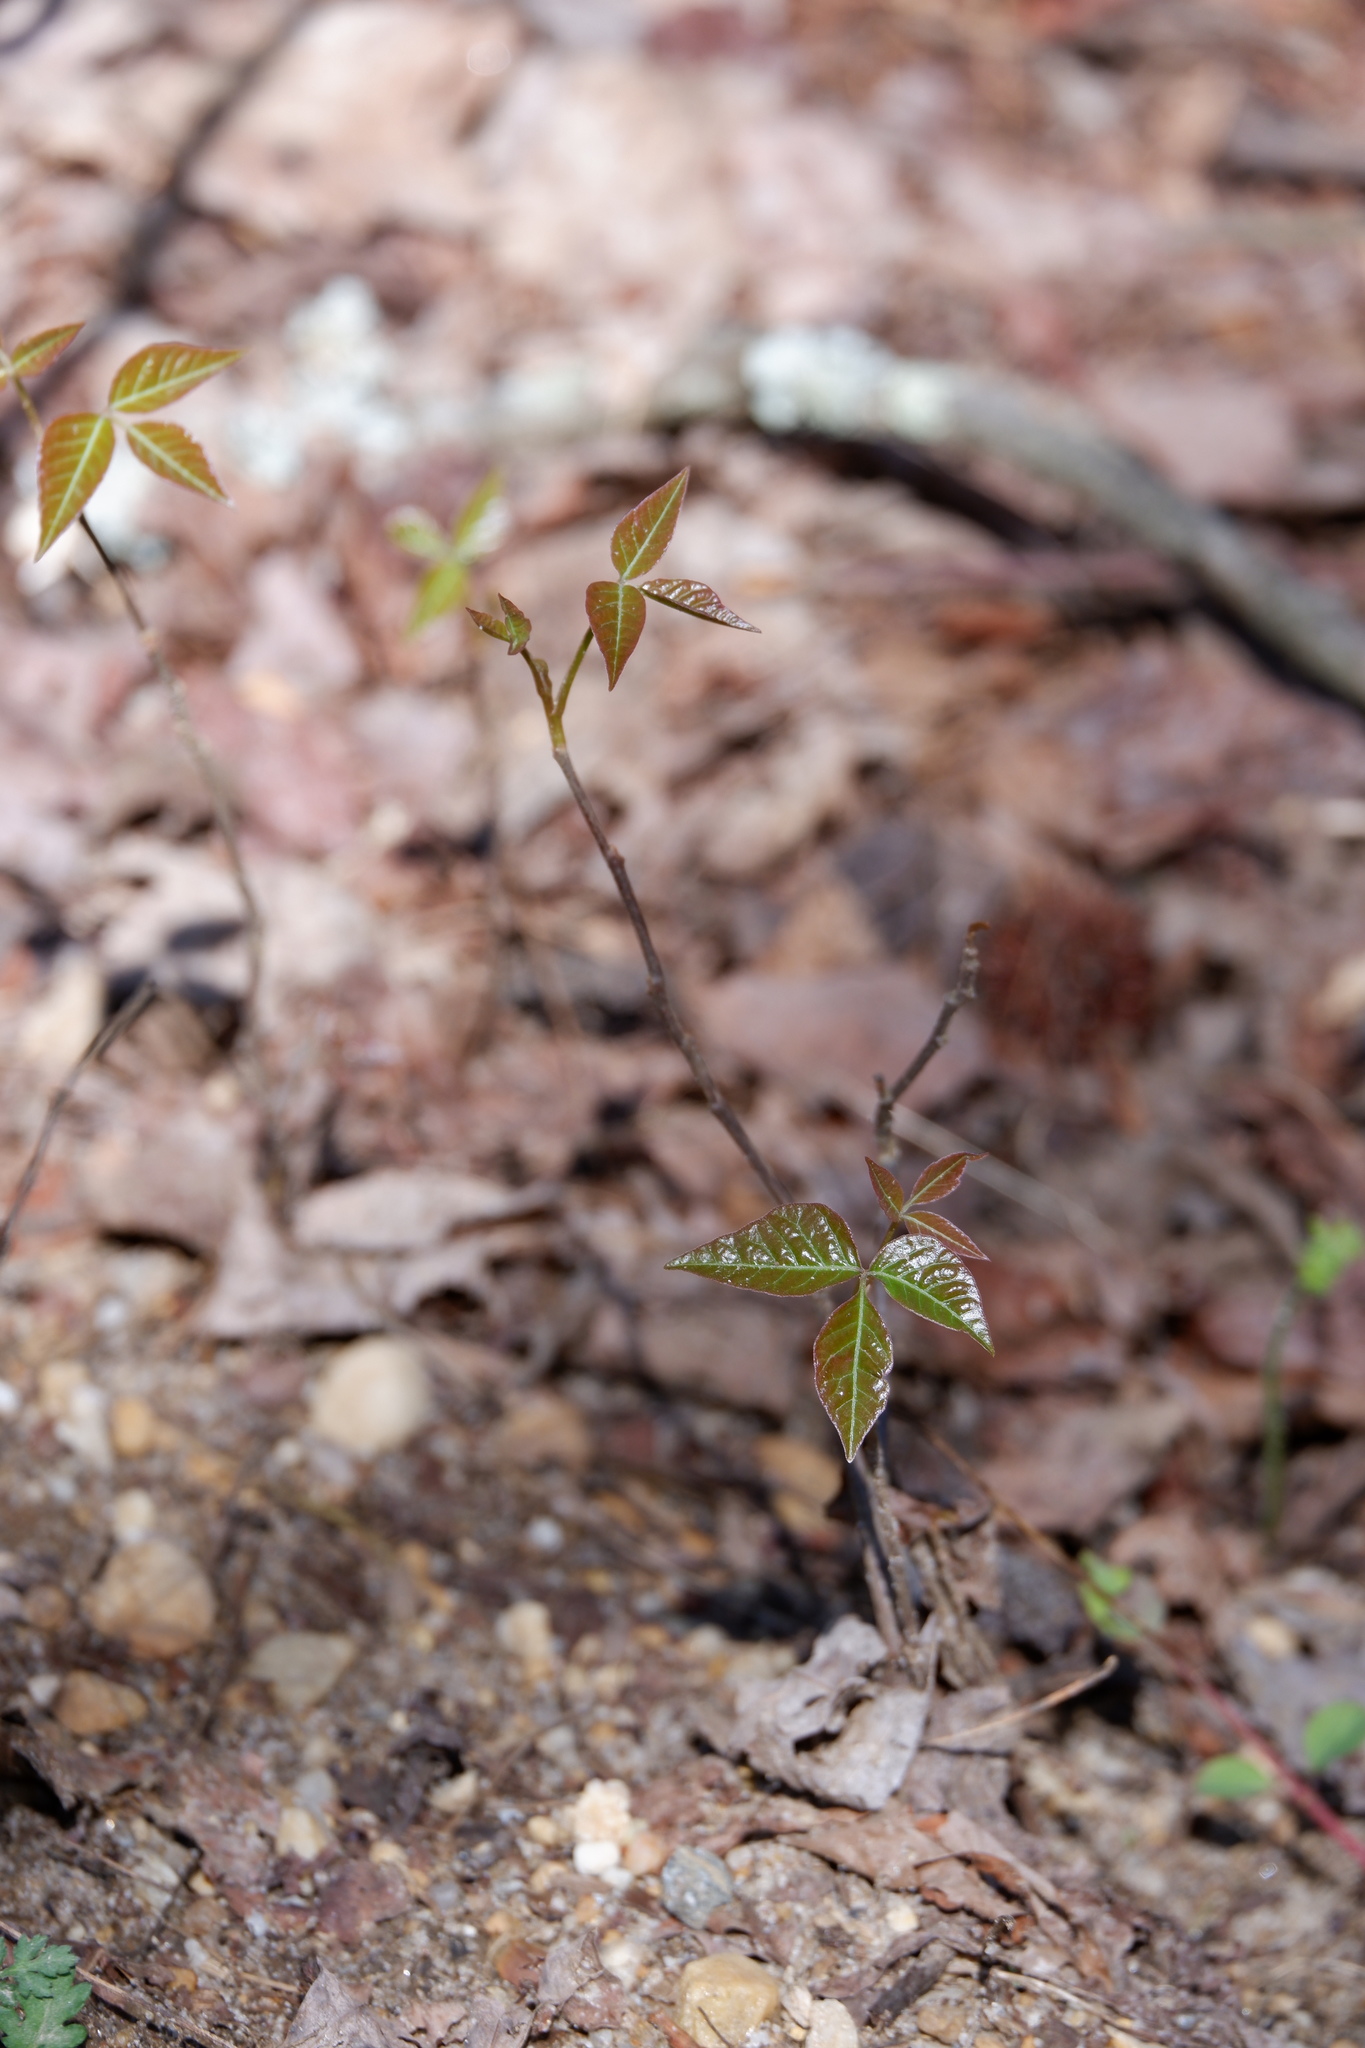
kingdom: Plantae
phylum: Tracheophyta
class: Magnoliopsida
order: Sapindales
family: Anacardiaceae
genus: Toxicodendron
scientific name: Toxicodendron radicans
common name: Poison ivy
